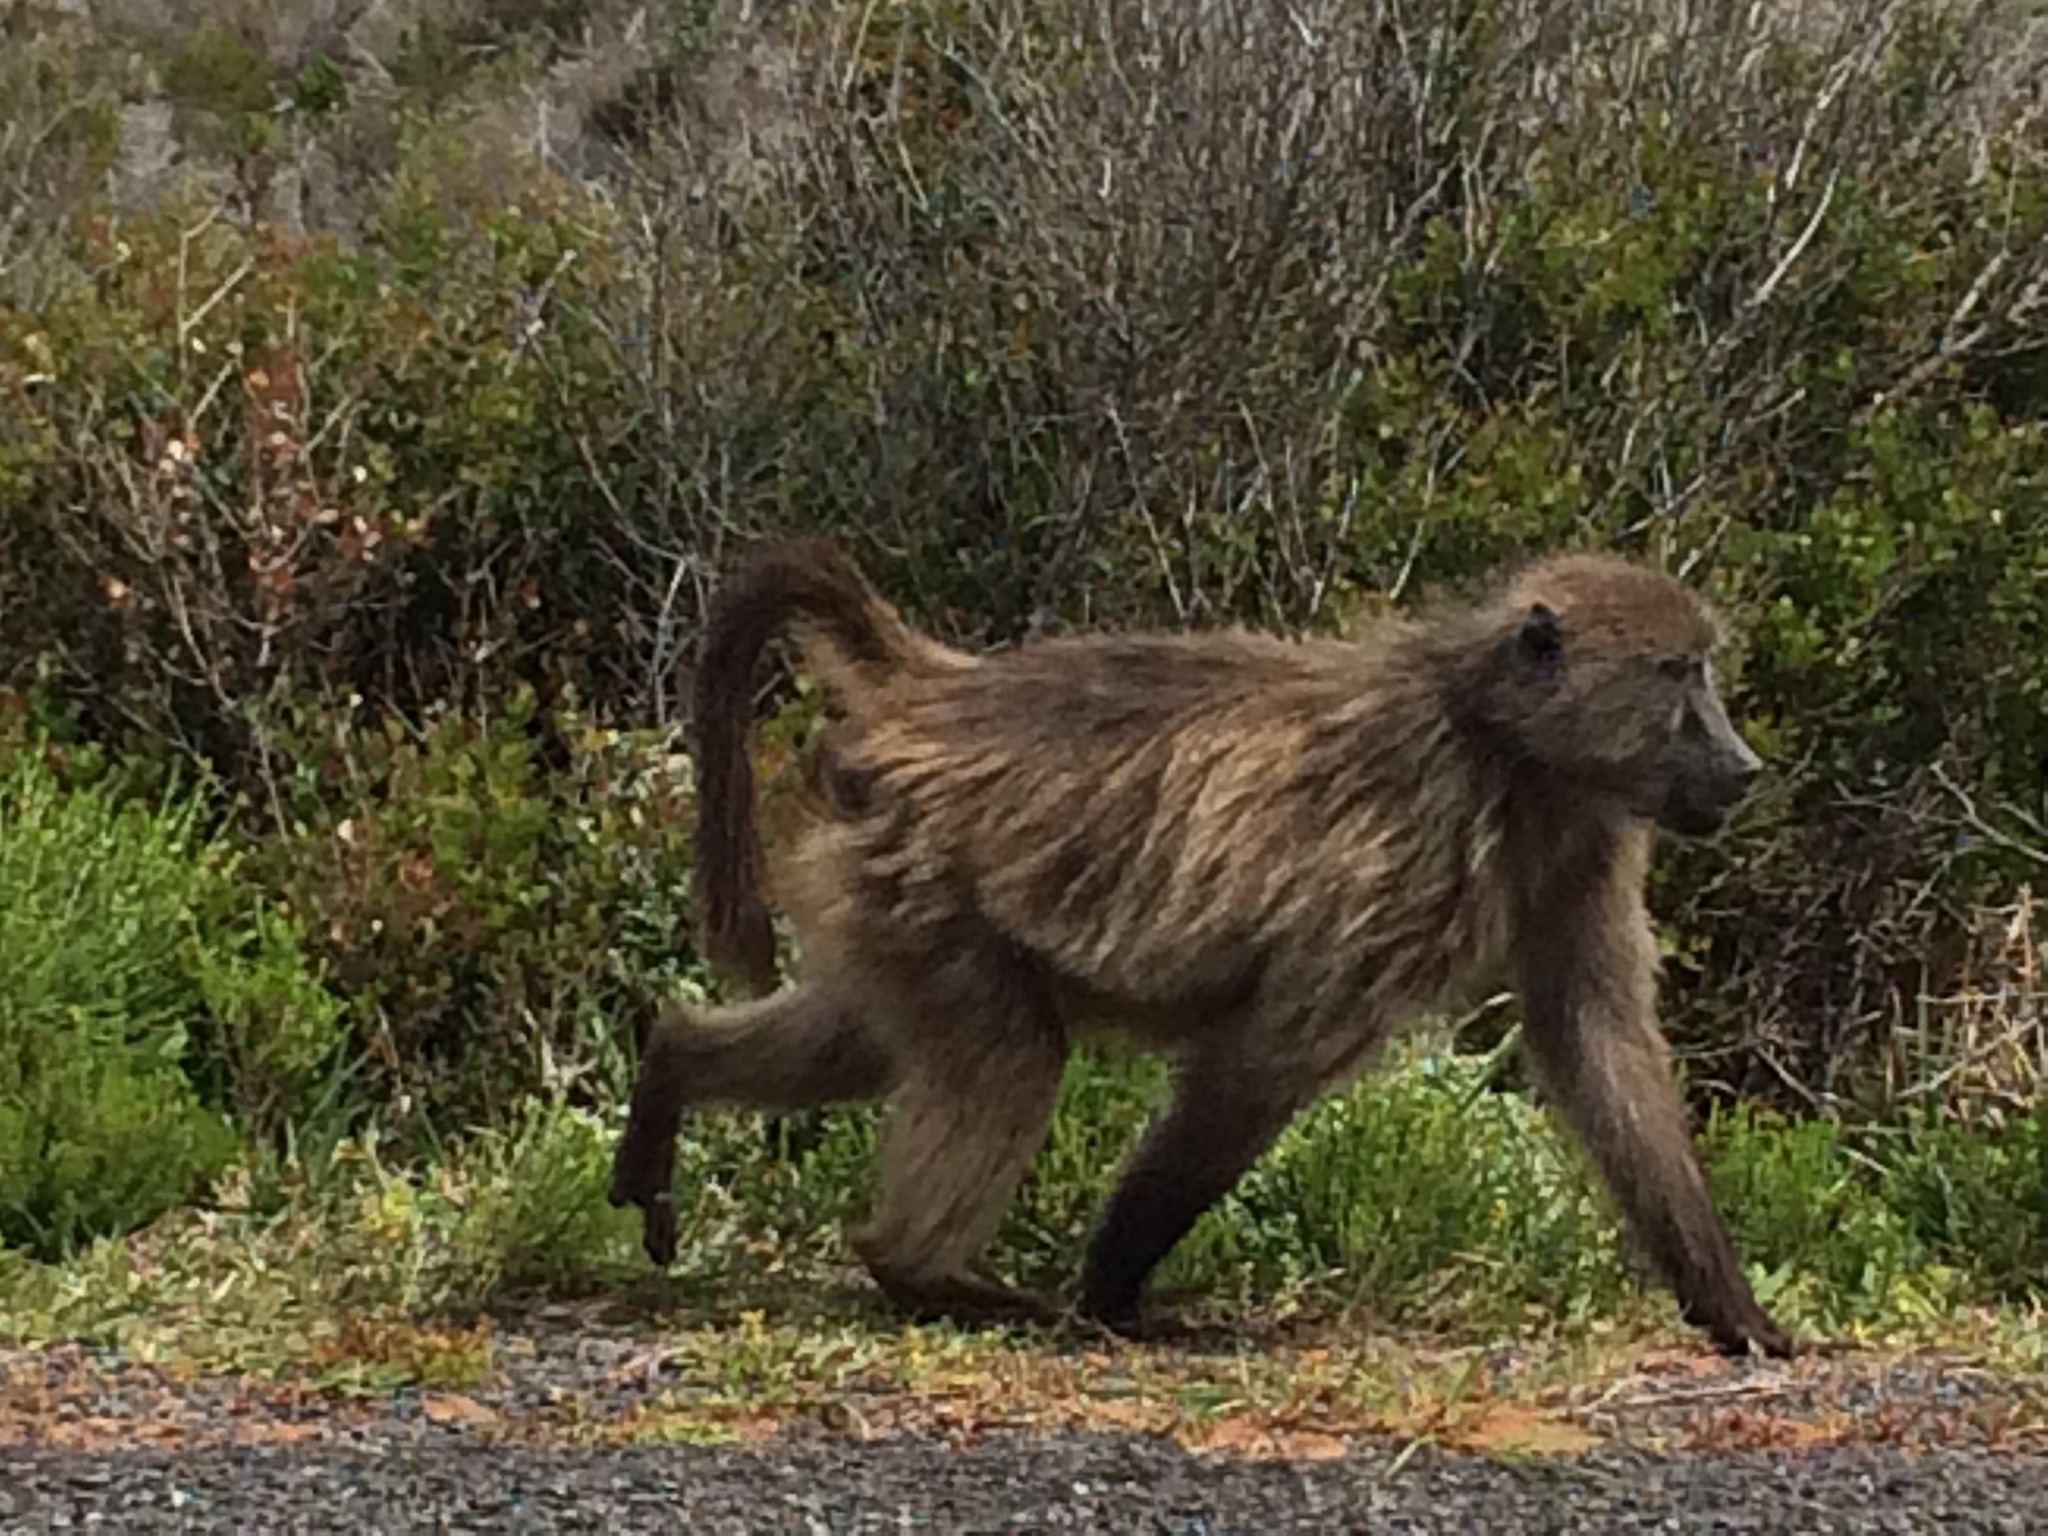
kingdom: Animalia
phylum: Chordata
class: Mammalia
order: Primates
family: Cercopithecidae
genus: Papio
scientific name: Papio ursinus
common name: Chacma baboon
